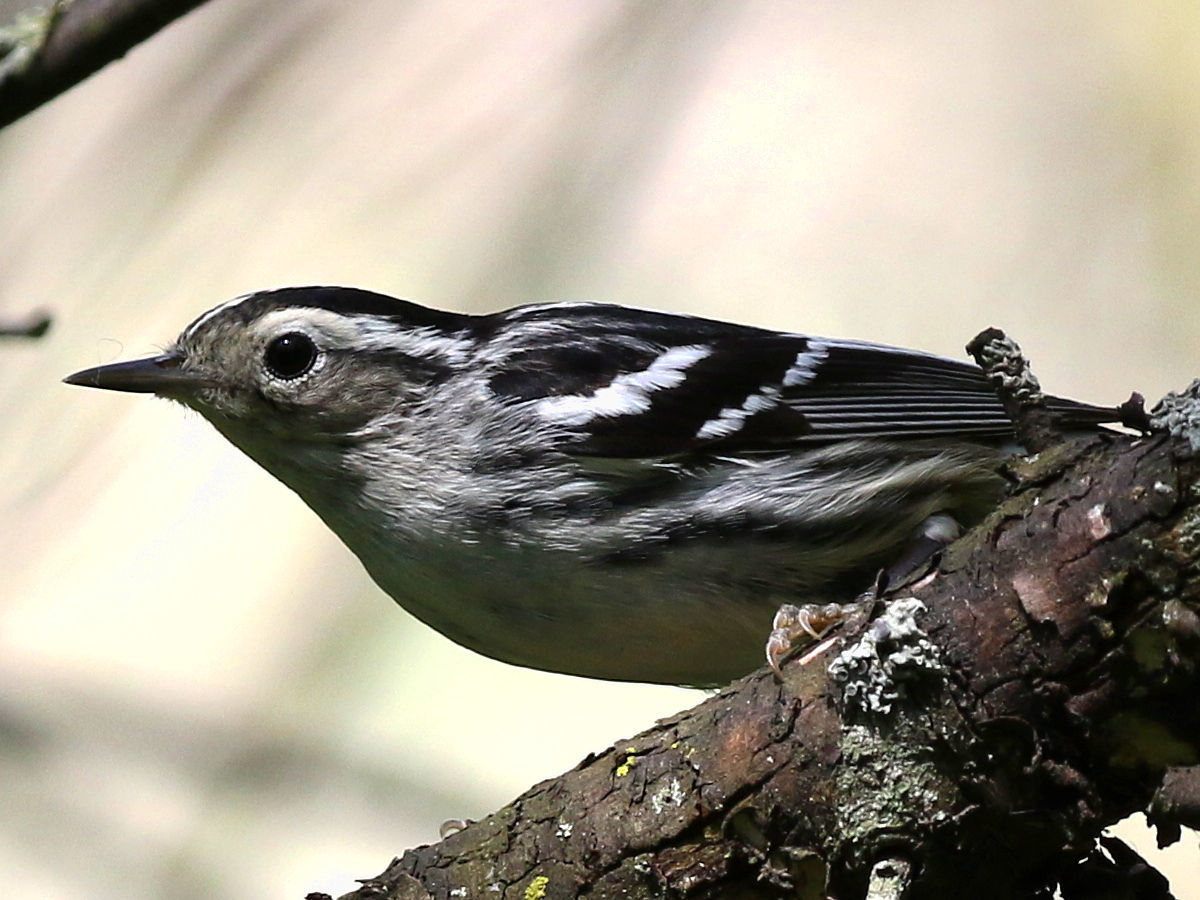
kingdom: Animalia
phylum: Chordata
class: Aves
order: Passeriformes
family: Parulidae
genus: Mniotilta
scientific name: Mniotilta varia
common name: Black-and-white warbler
